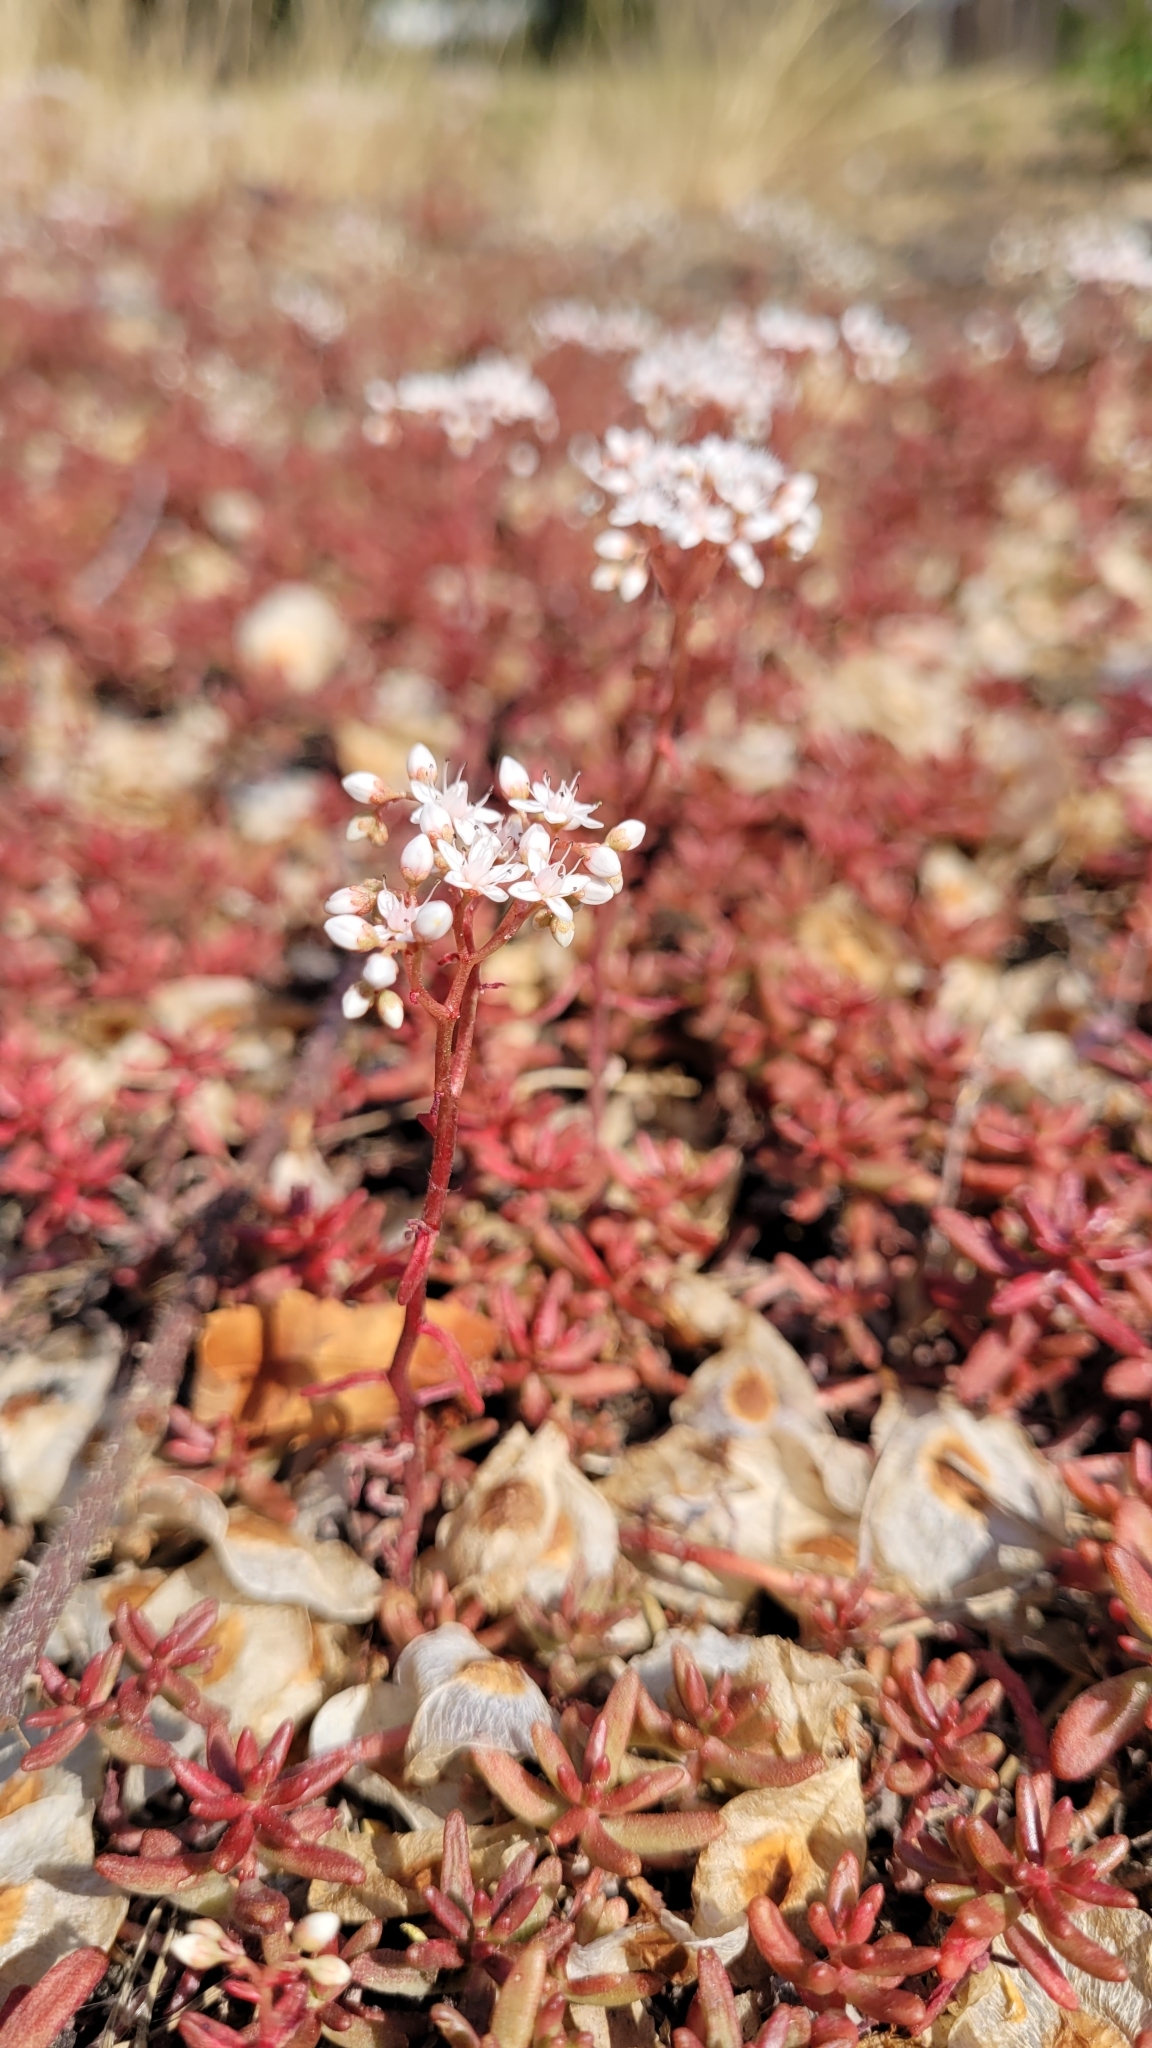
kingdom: Plantae
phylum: Tracheophyta
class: Magnoliopsida
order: Saxifragales
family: Crassulaceae
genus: Sedum
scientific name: Sedum album
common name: White stonecrop
